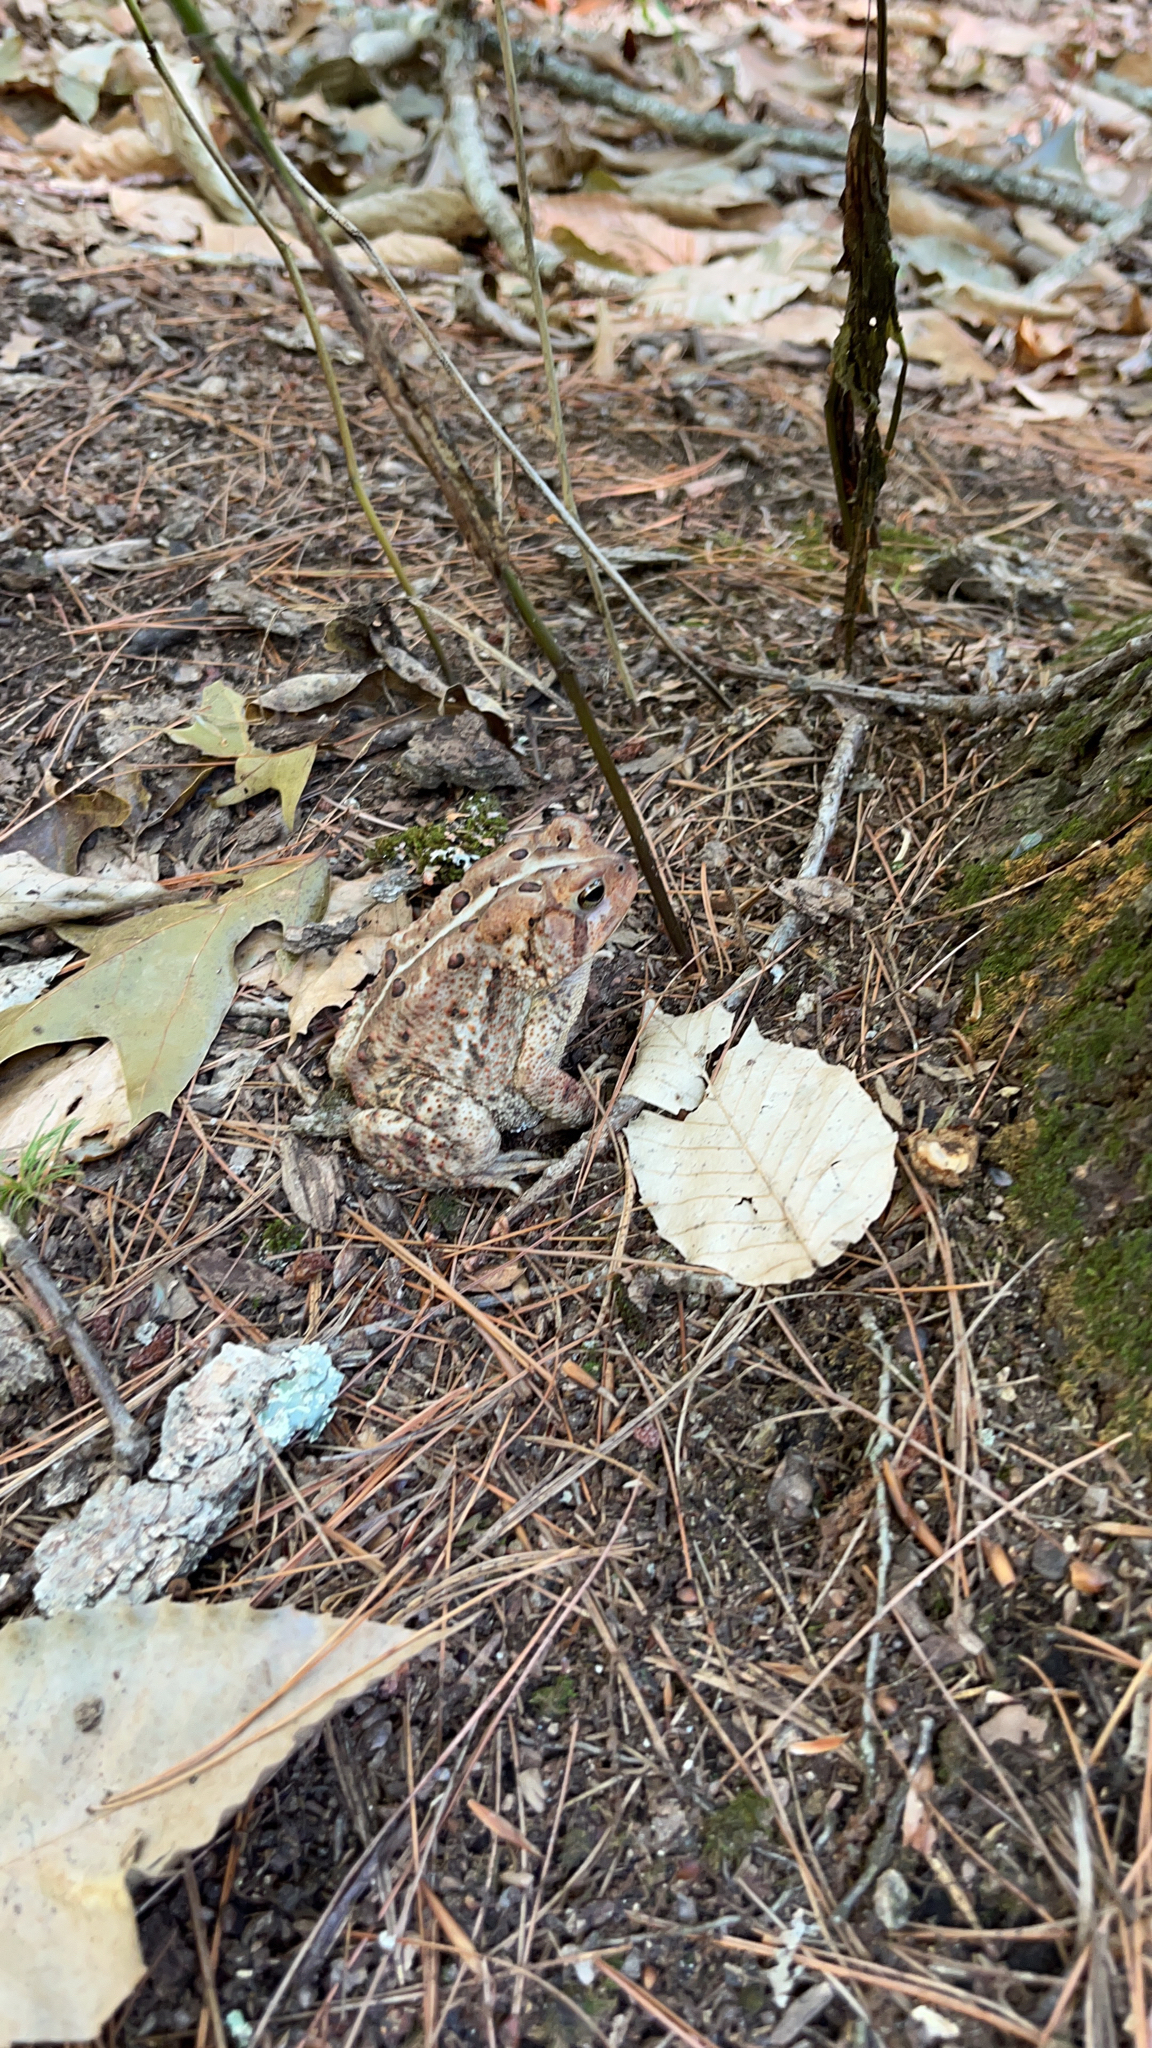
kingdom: Animalia
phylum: Chordata
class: Amphibia
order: Anura
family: Bufonidae
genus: Anaxyrus
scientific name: Anaxyrus americanus
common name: American toad
